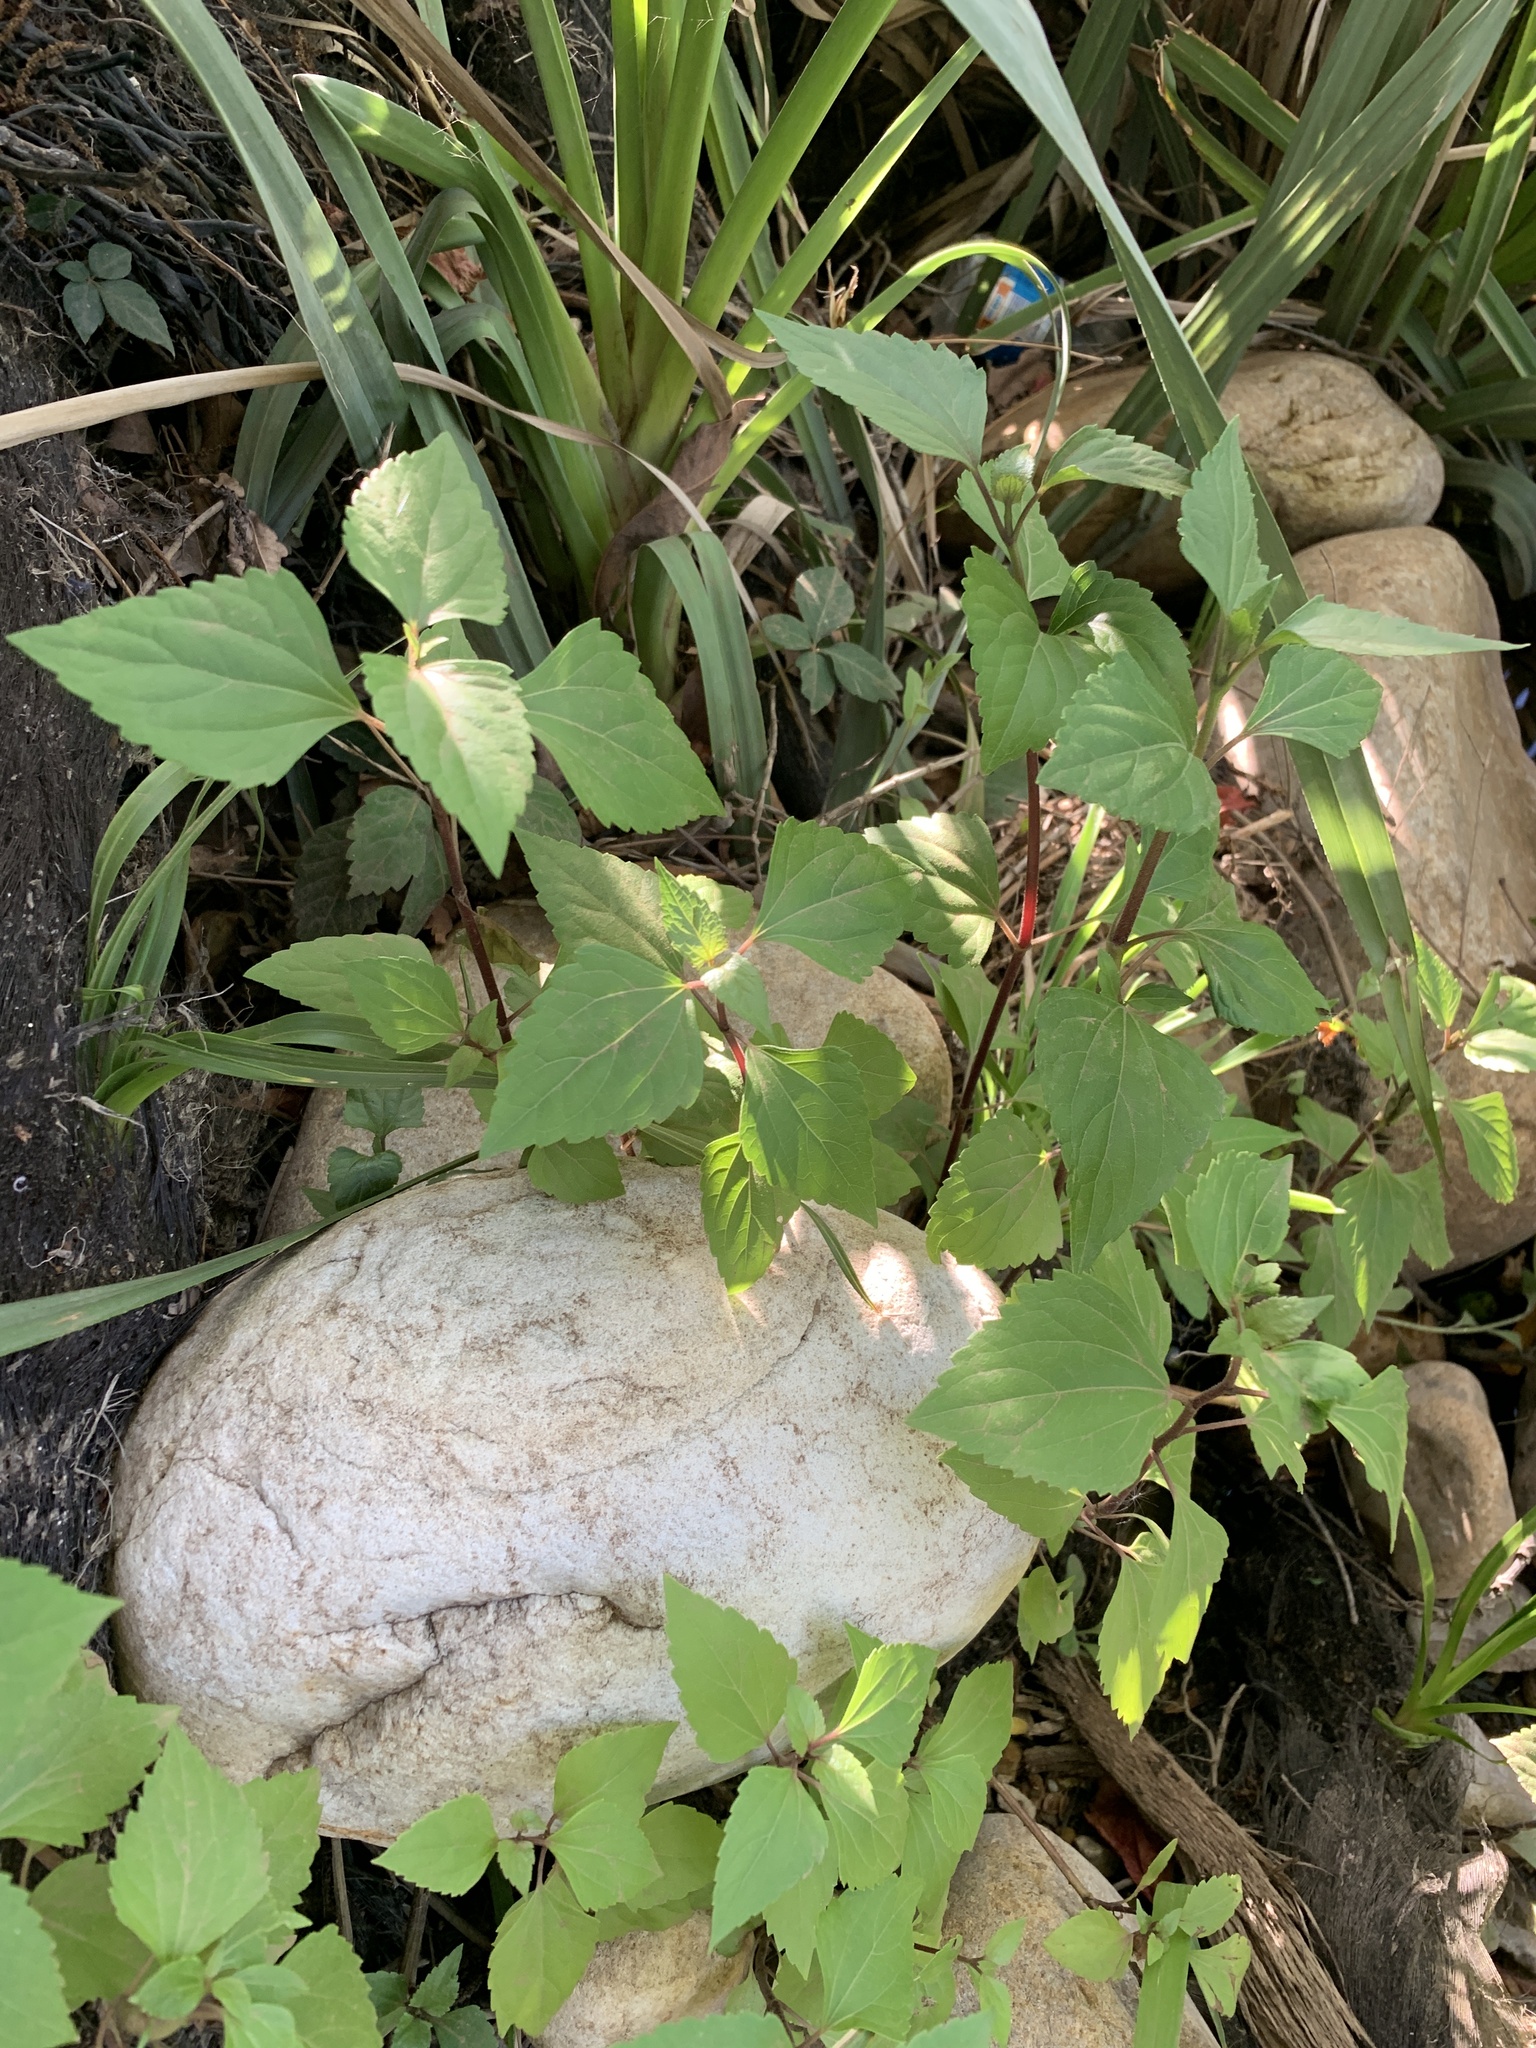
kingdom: Plantae
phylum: Tracheophyta
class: Magnoliopsida
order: Asterales
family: Asteraceae
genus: Ageratina
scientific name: Ageratina adenophora
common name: Sticky snakeroot
